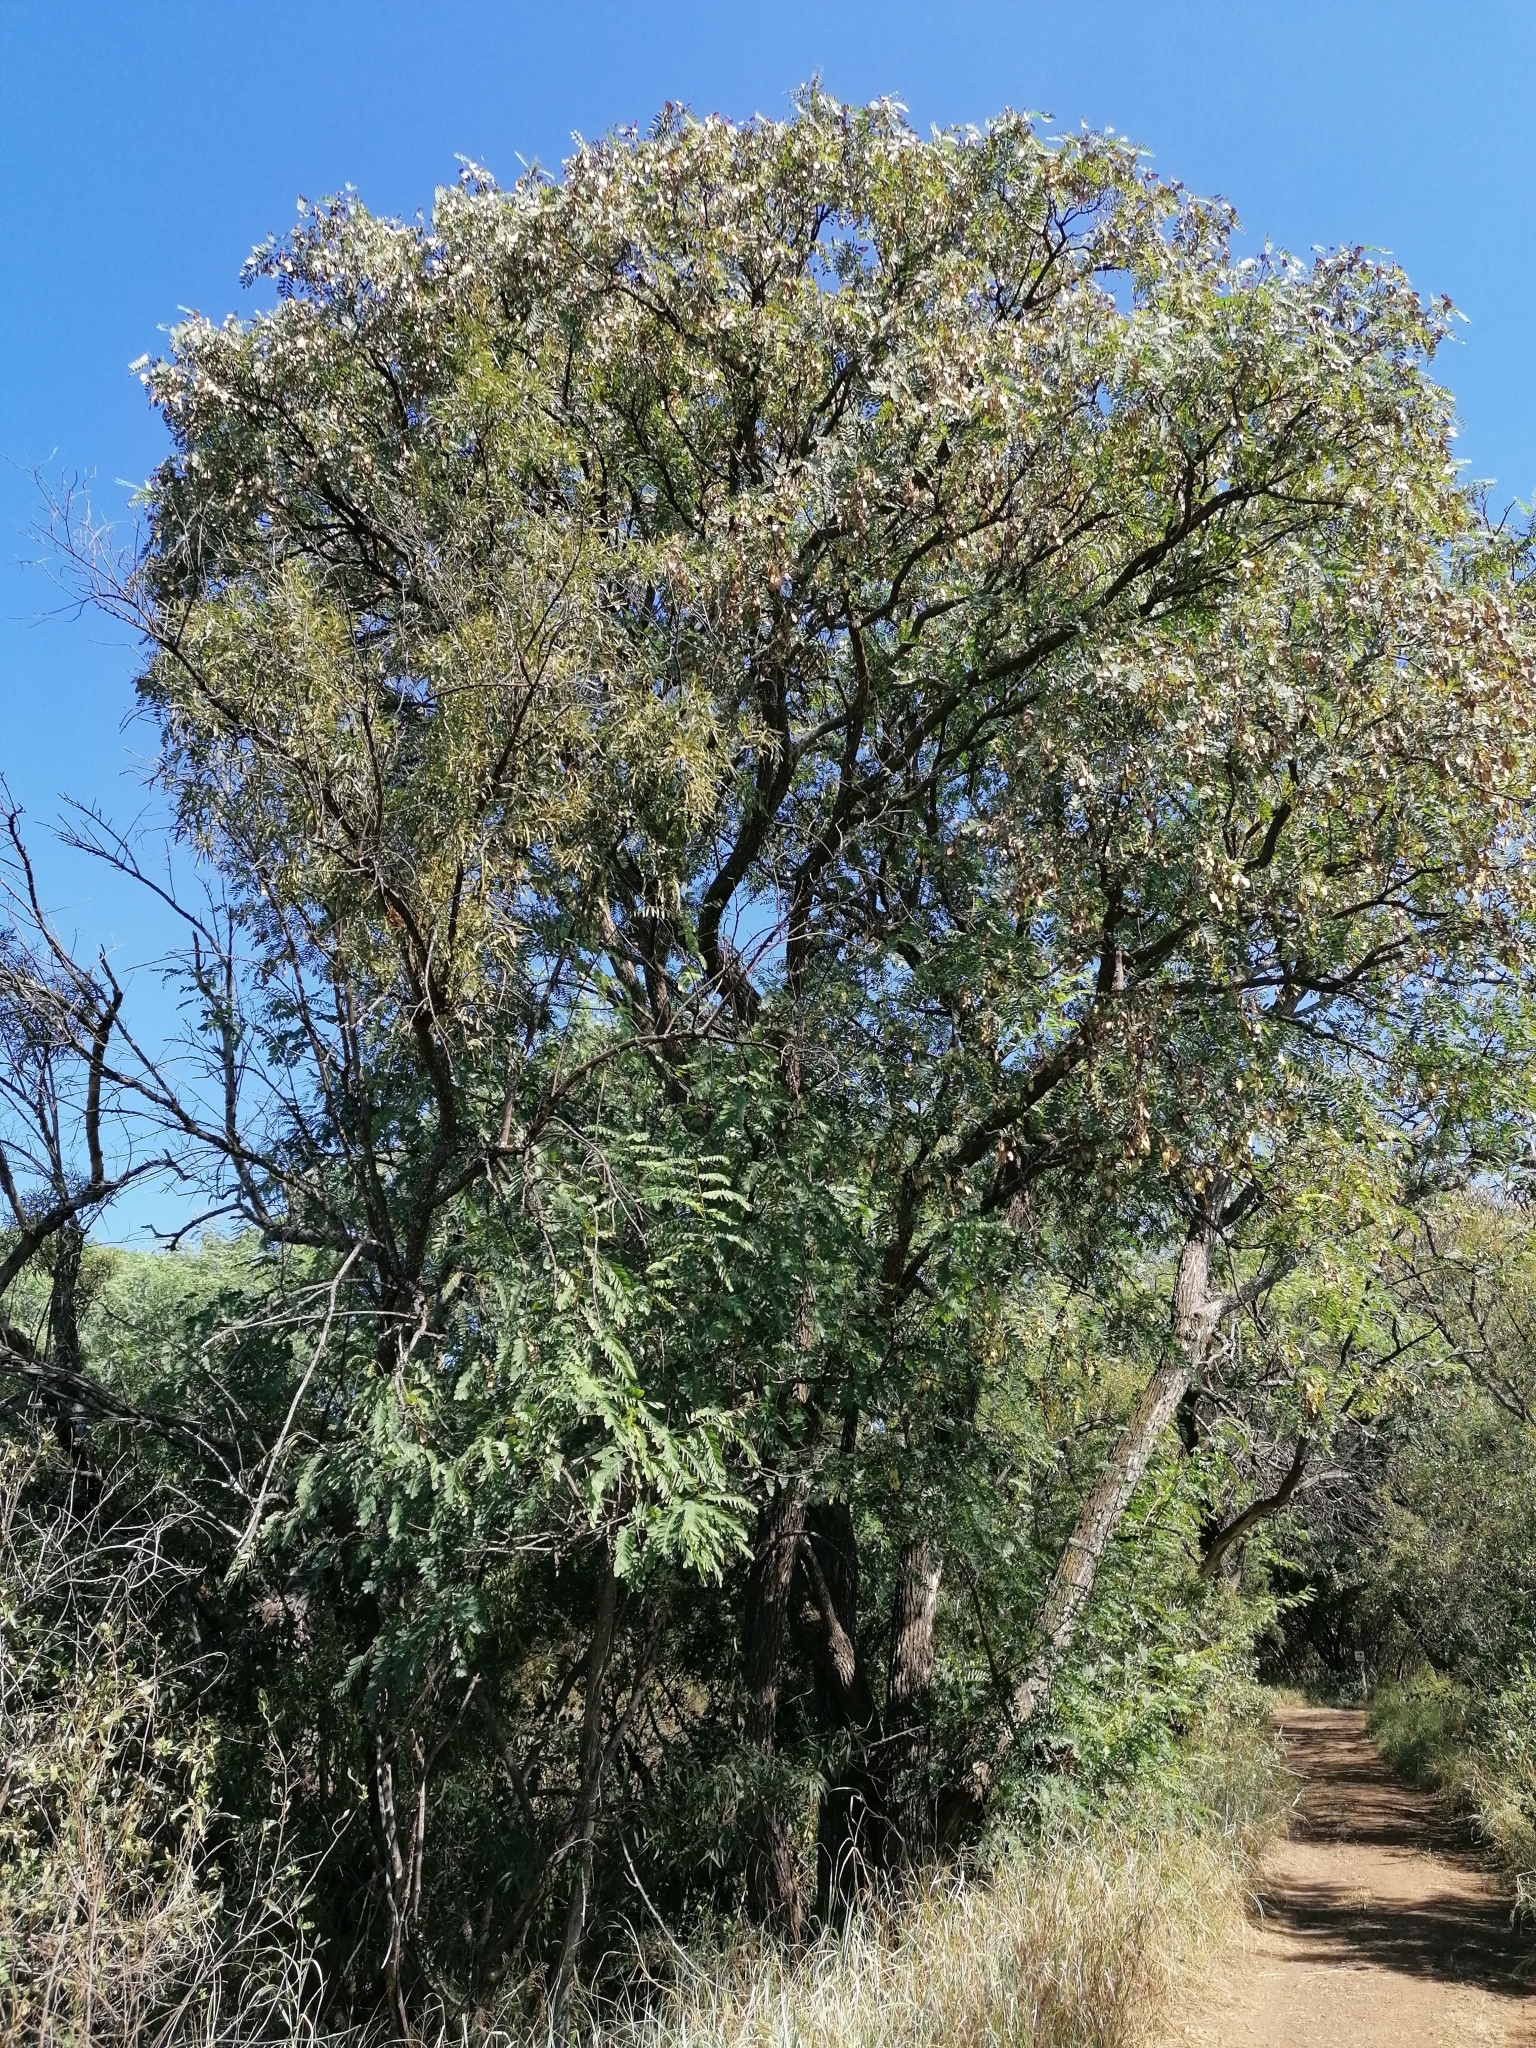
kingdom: Plantae
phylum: Tracheophyta
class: Magnoliopsida
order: Fabales
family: Fabaceae
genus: Tipuana
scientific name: Tipuana tipu
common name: Tiputree
